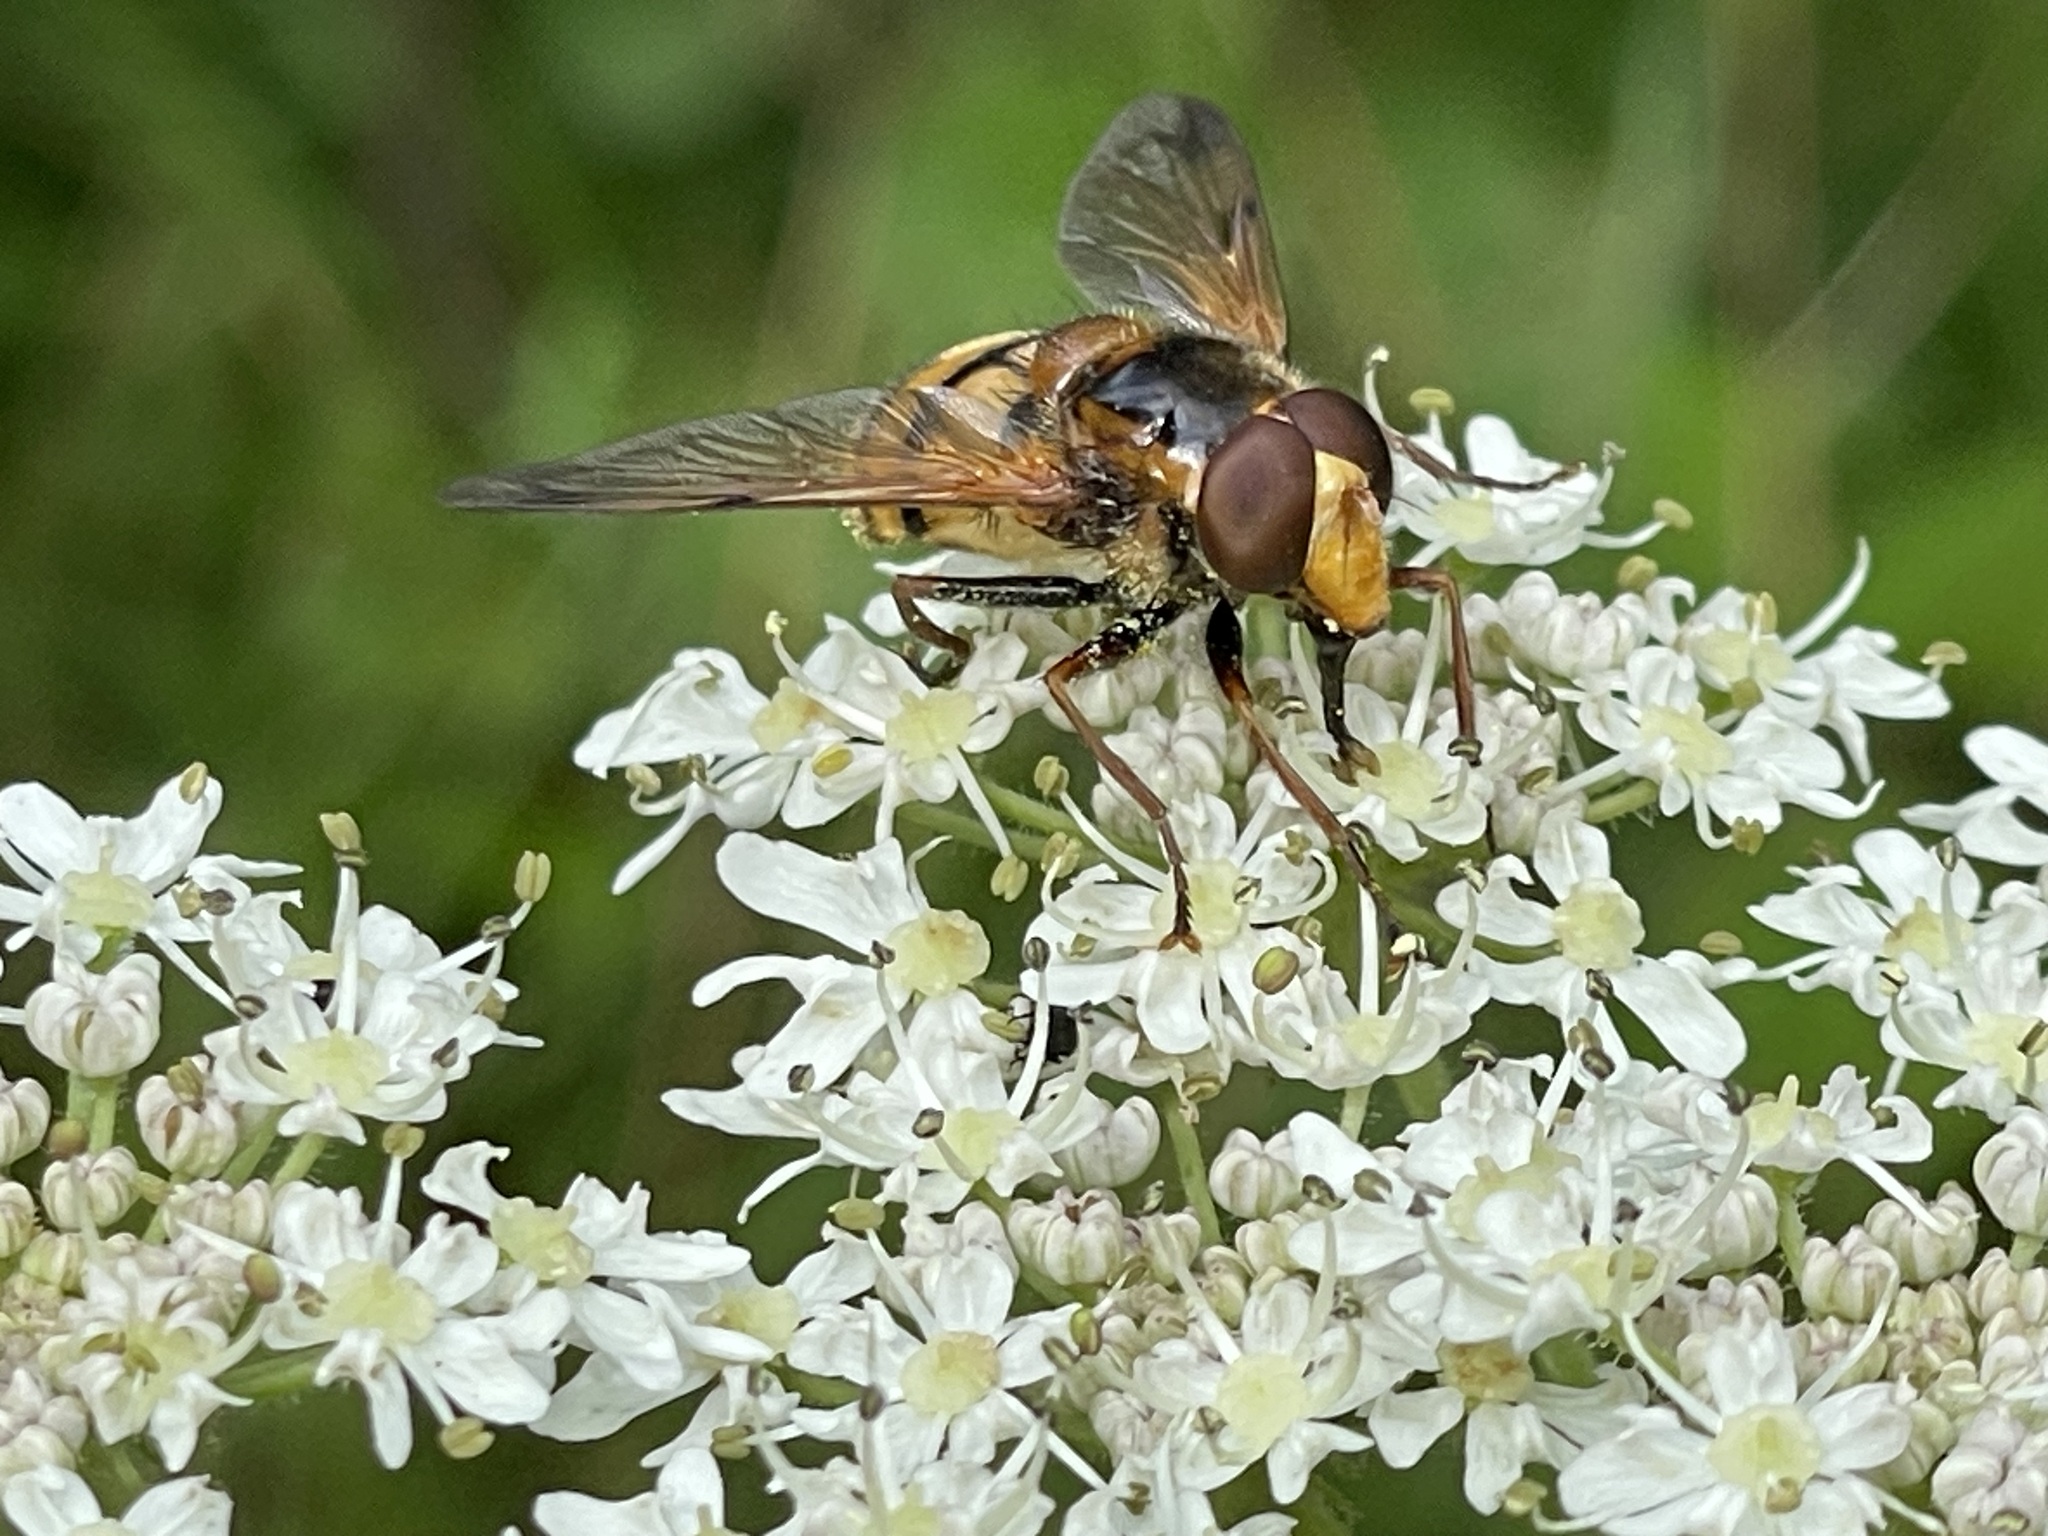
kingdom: Animalia
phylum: Arthropoda
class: Insecta
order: Diptera
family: Syrphidae
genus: Volucella
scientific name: Volucella inanis
